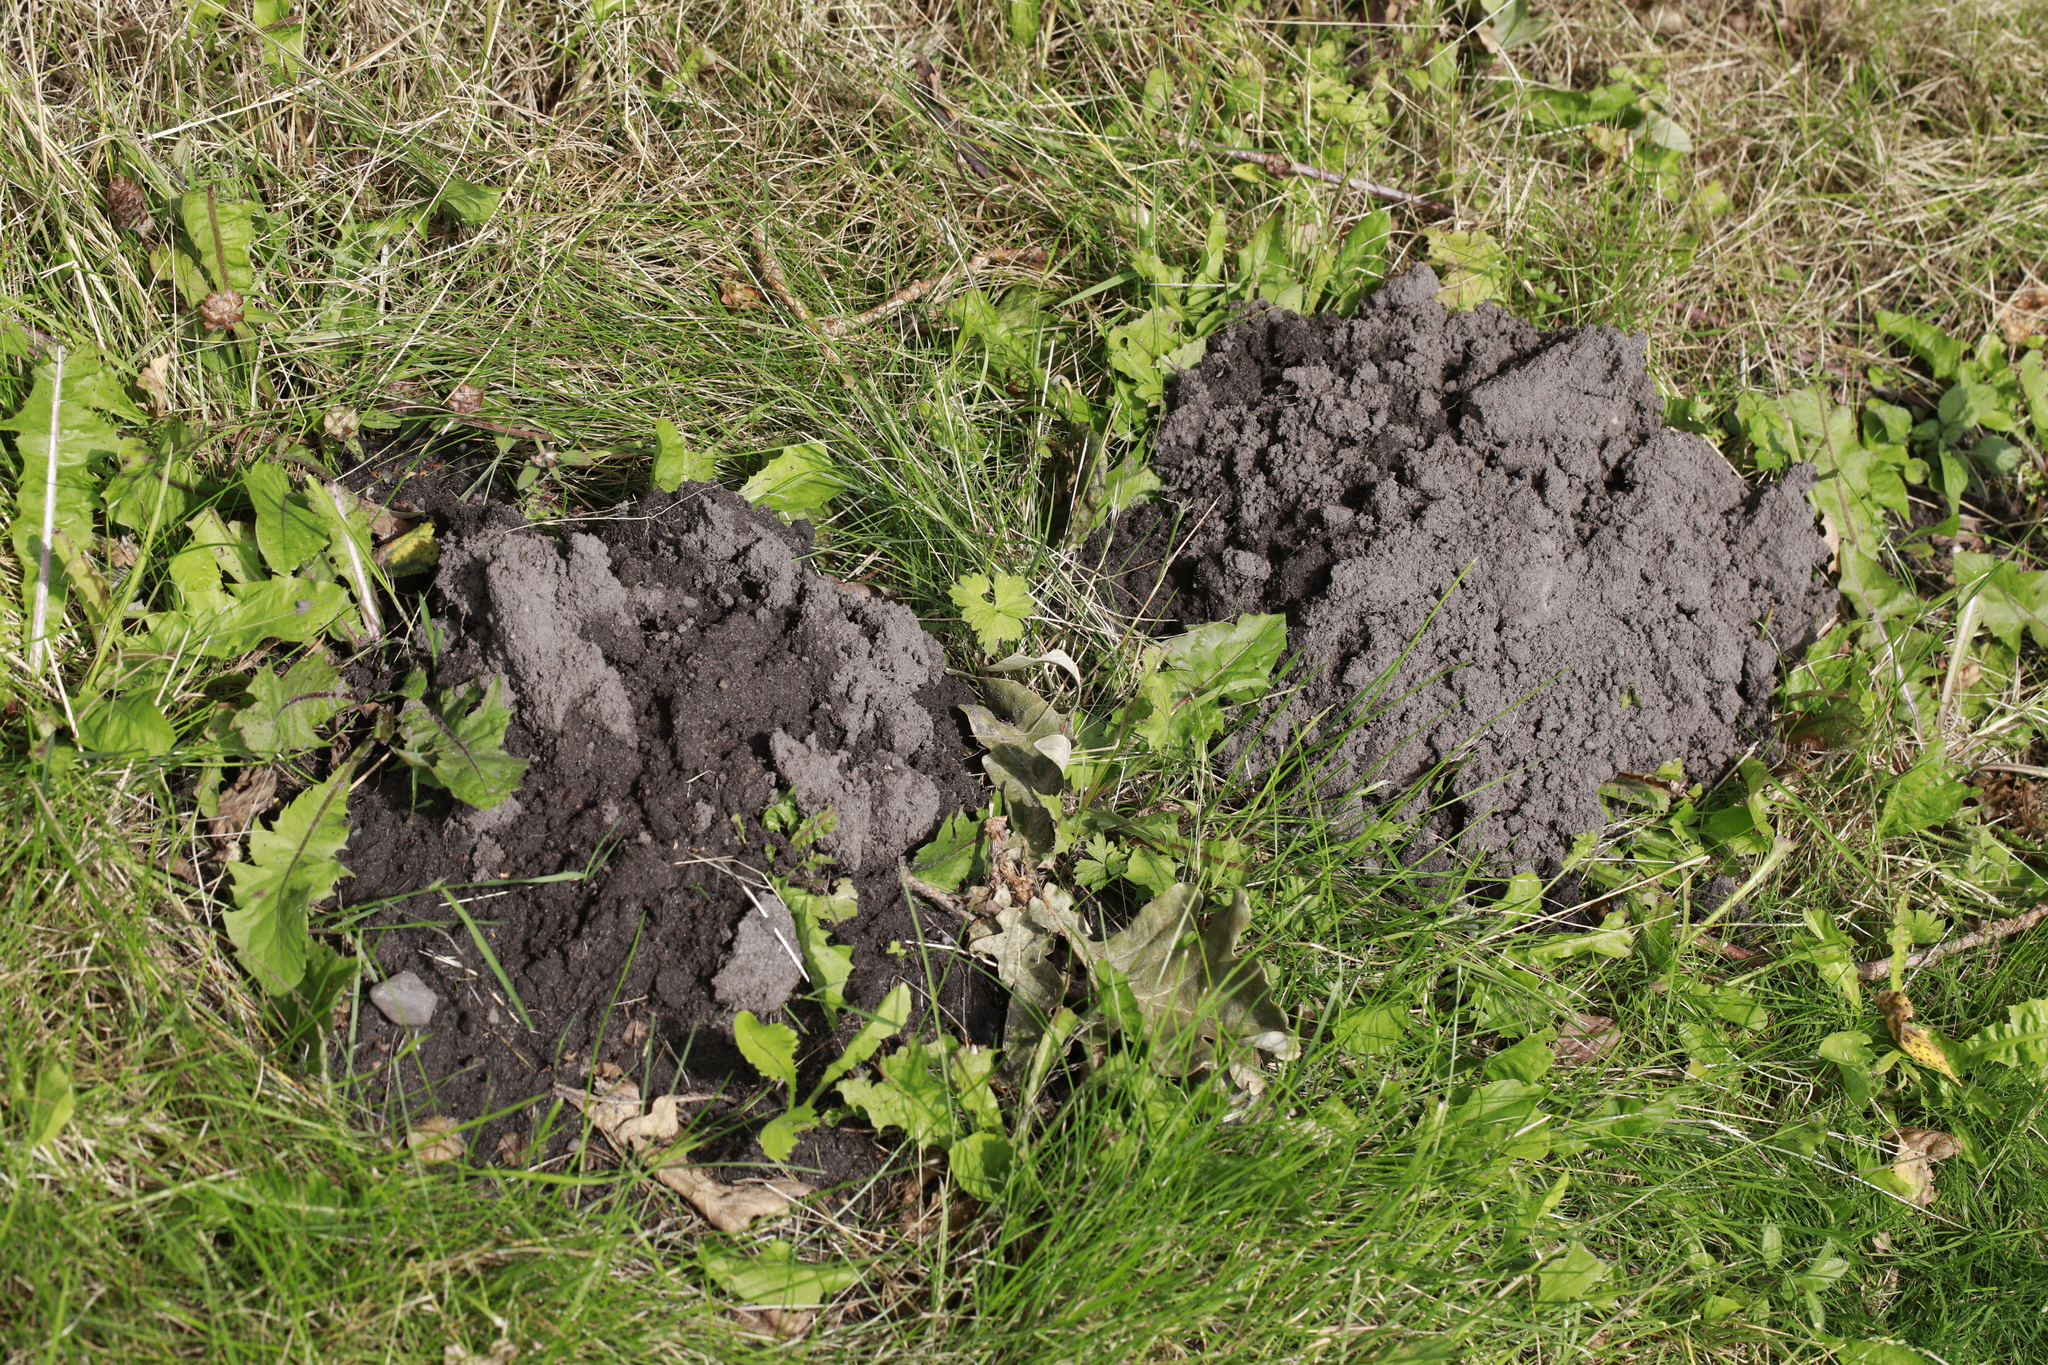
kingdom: Animalia
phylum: Chordata
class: Mammalia
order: Soricomorpha
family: Talpidae
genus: Talpa
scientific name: Talpa europaea
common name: European mole
